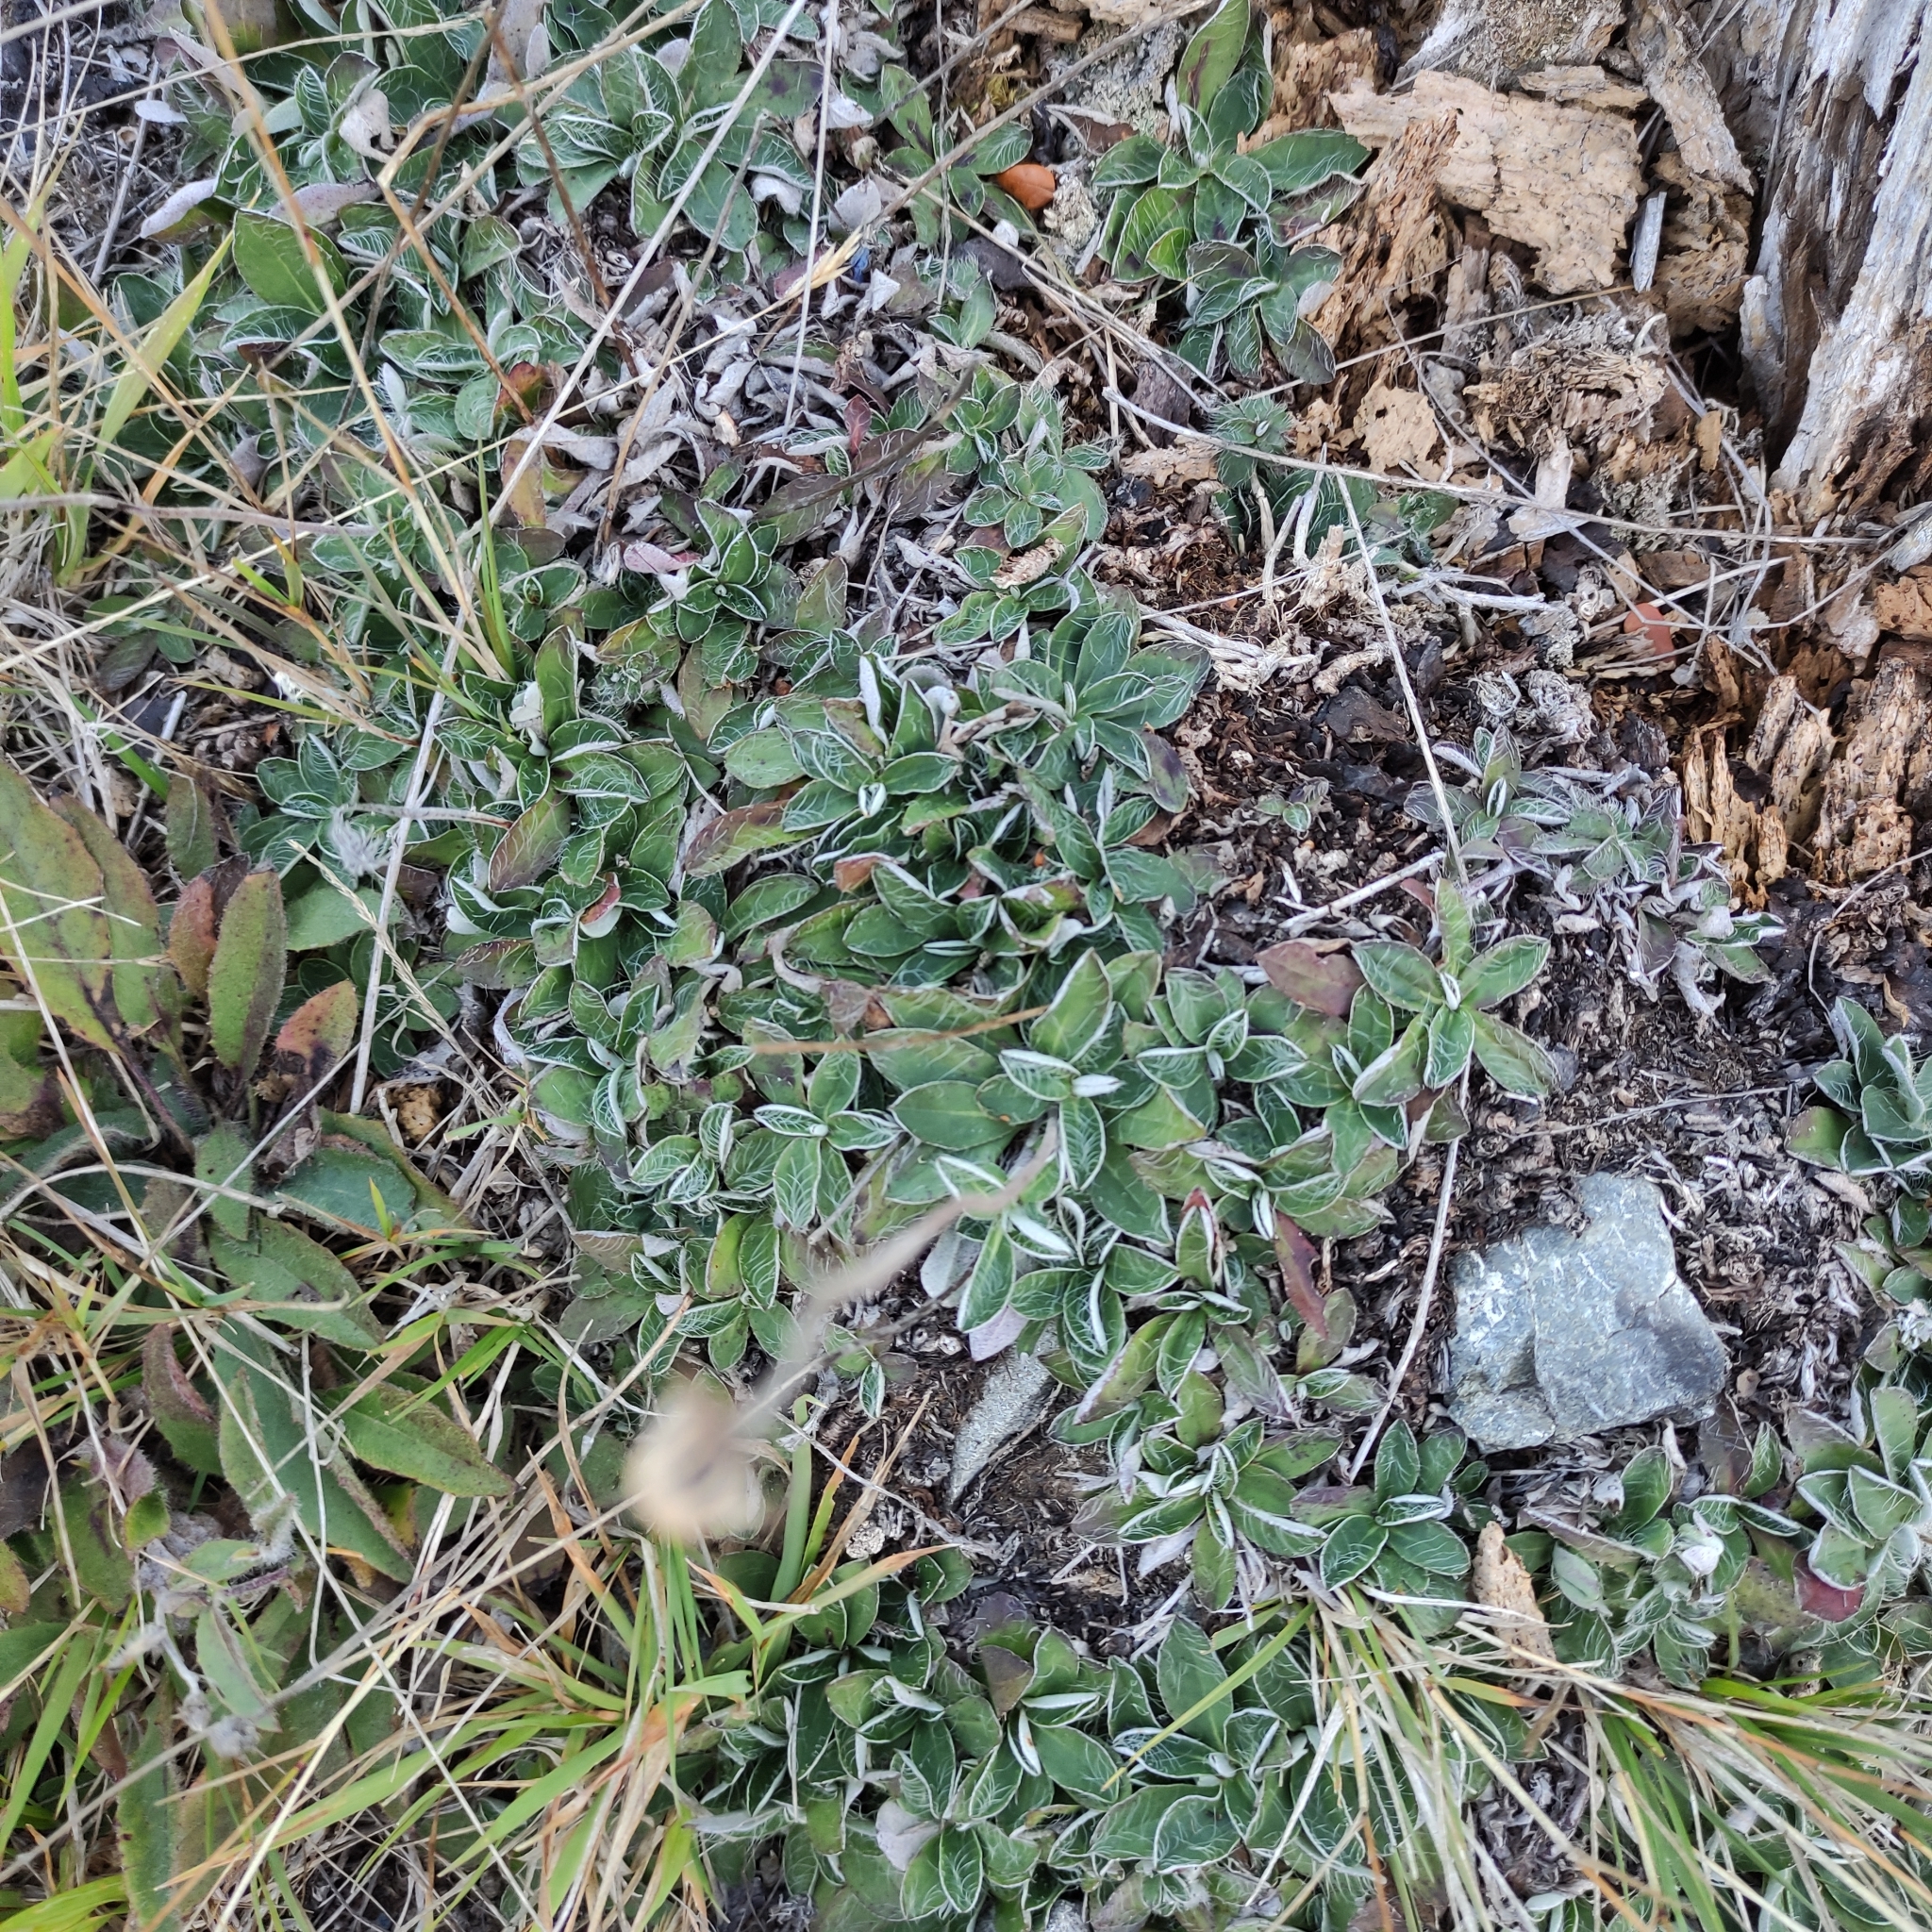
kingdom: Plantae
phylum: Tracheophyta
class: Magnoliopsida
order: Asterales
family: Asteraceae
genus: Pilosella
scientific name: Pilosella officinarum
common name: Mouse-ear hawkweed
